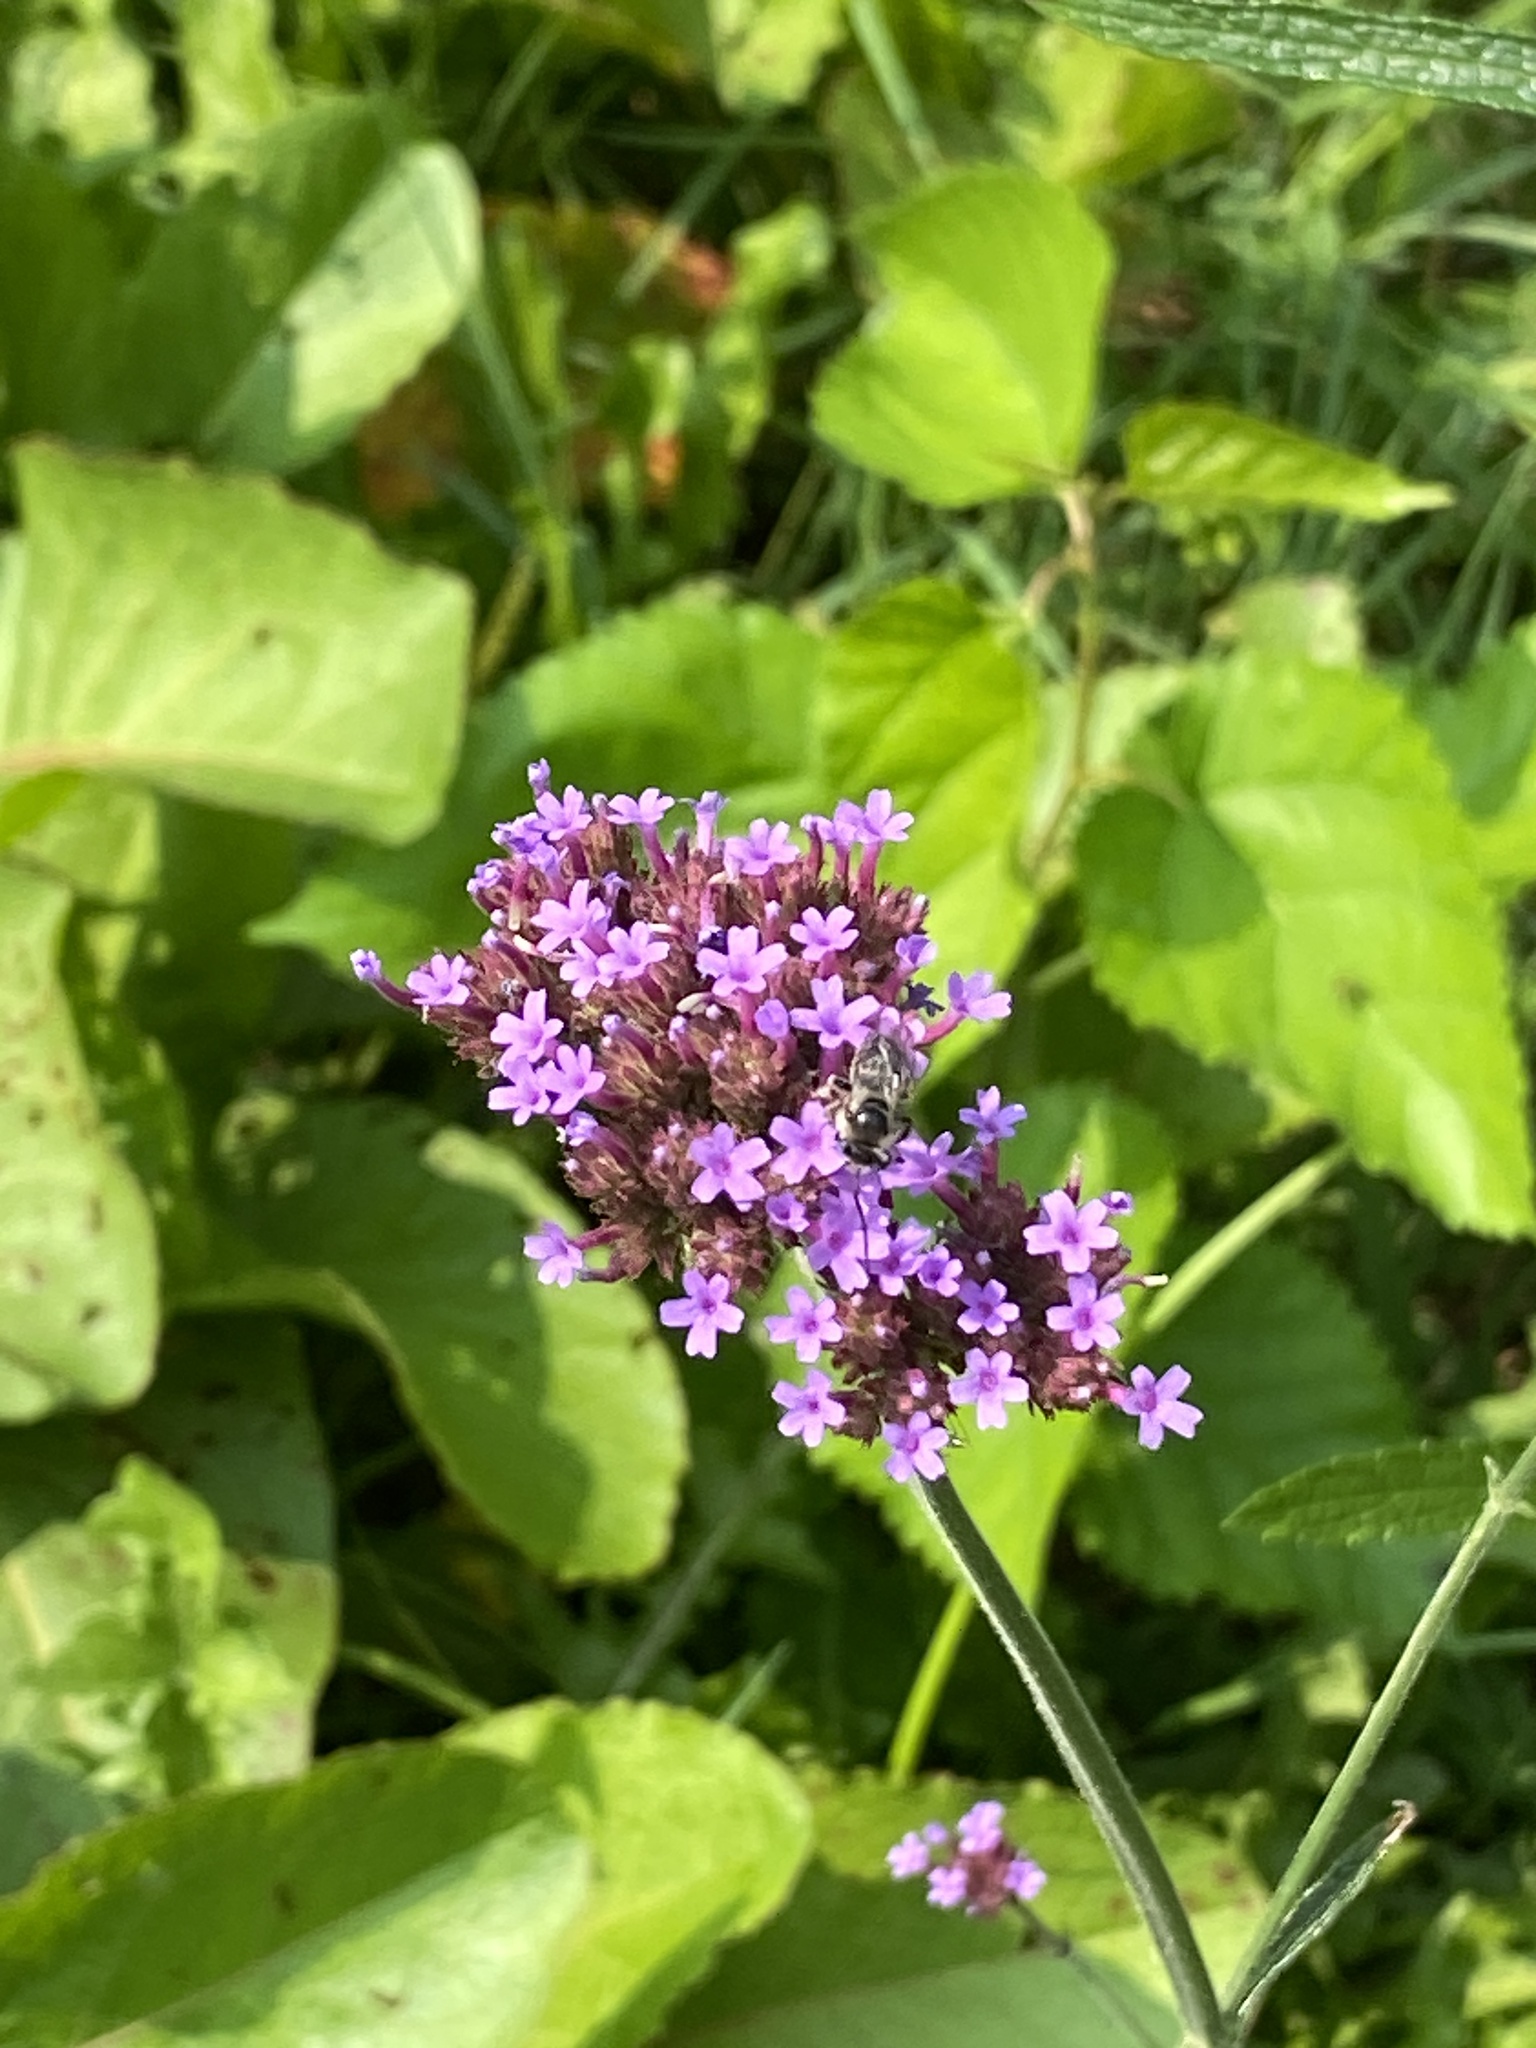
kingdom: Plantae
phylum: Tracheophyta
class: Magnoliopsida
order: Lamiales
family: Verbenaceae
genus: Verbena
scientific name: Verbena bonariensis
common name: Purpletop vervain
